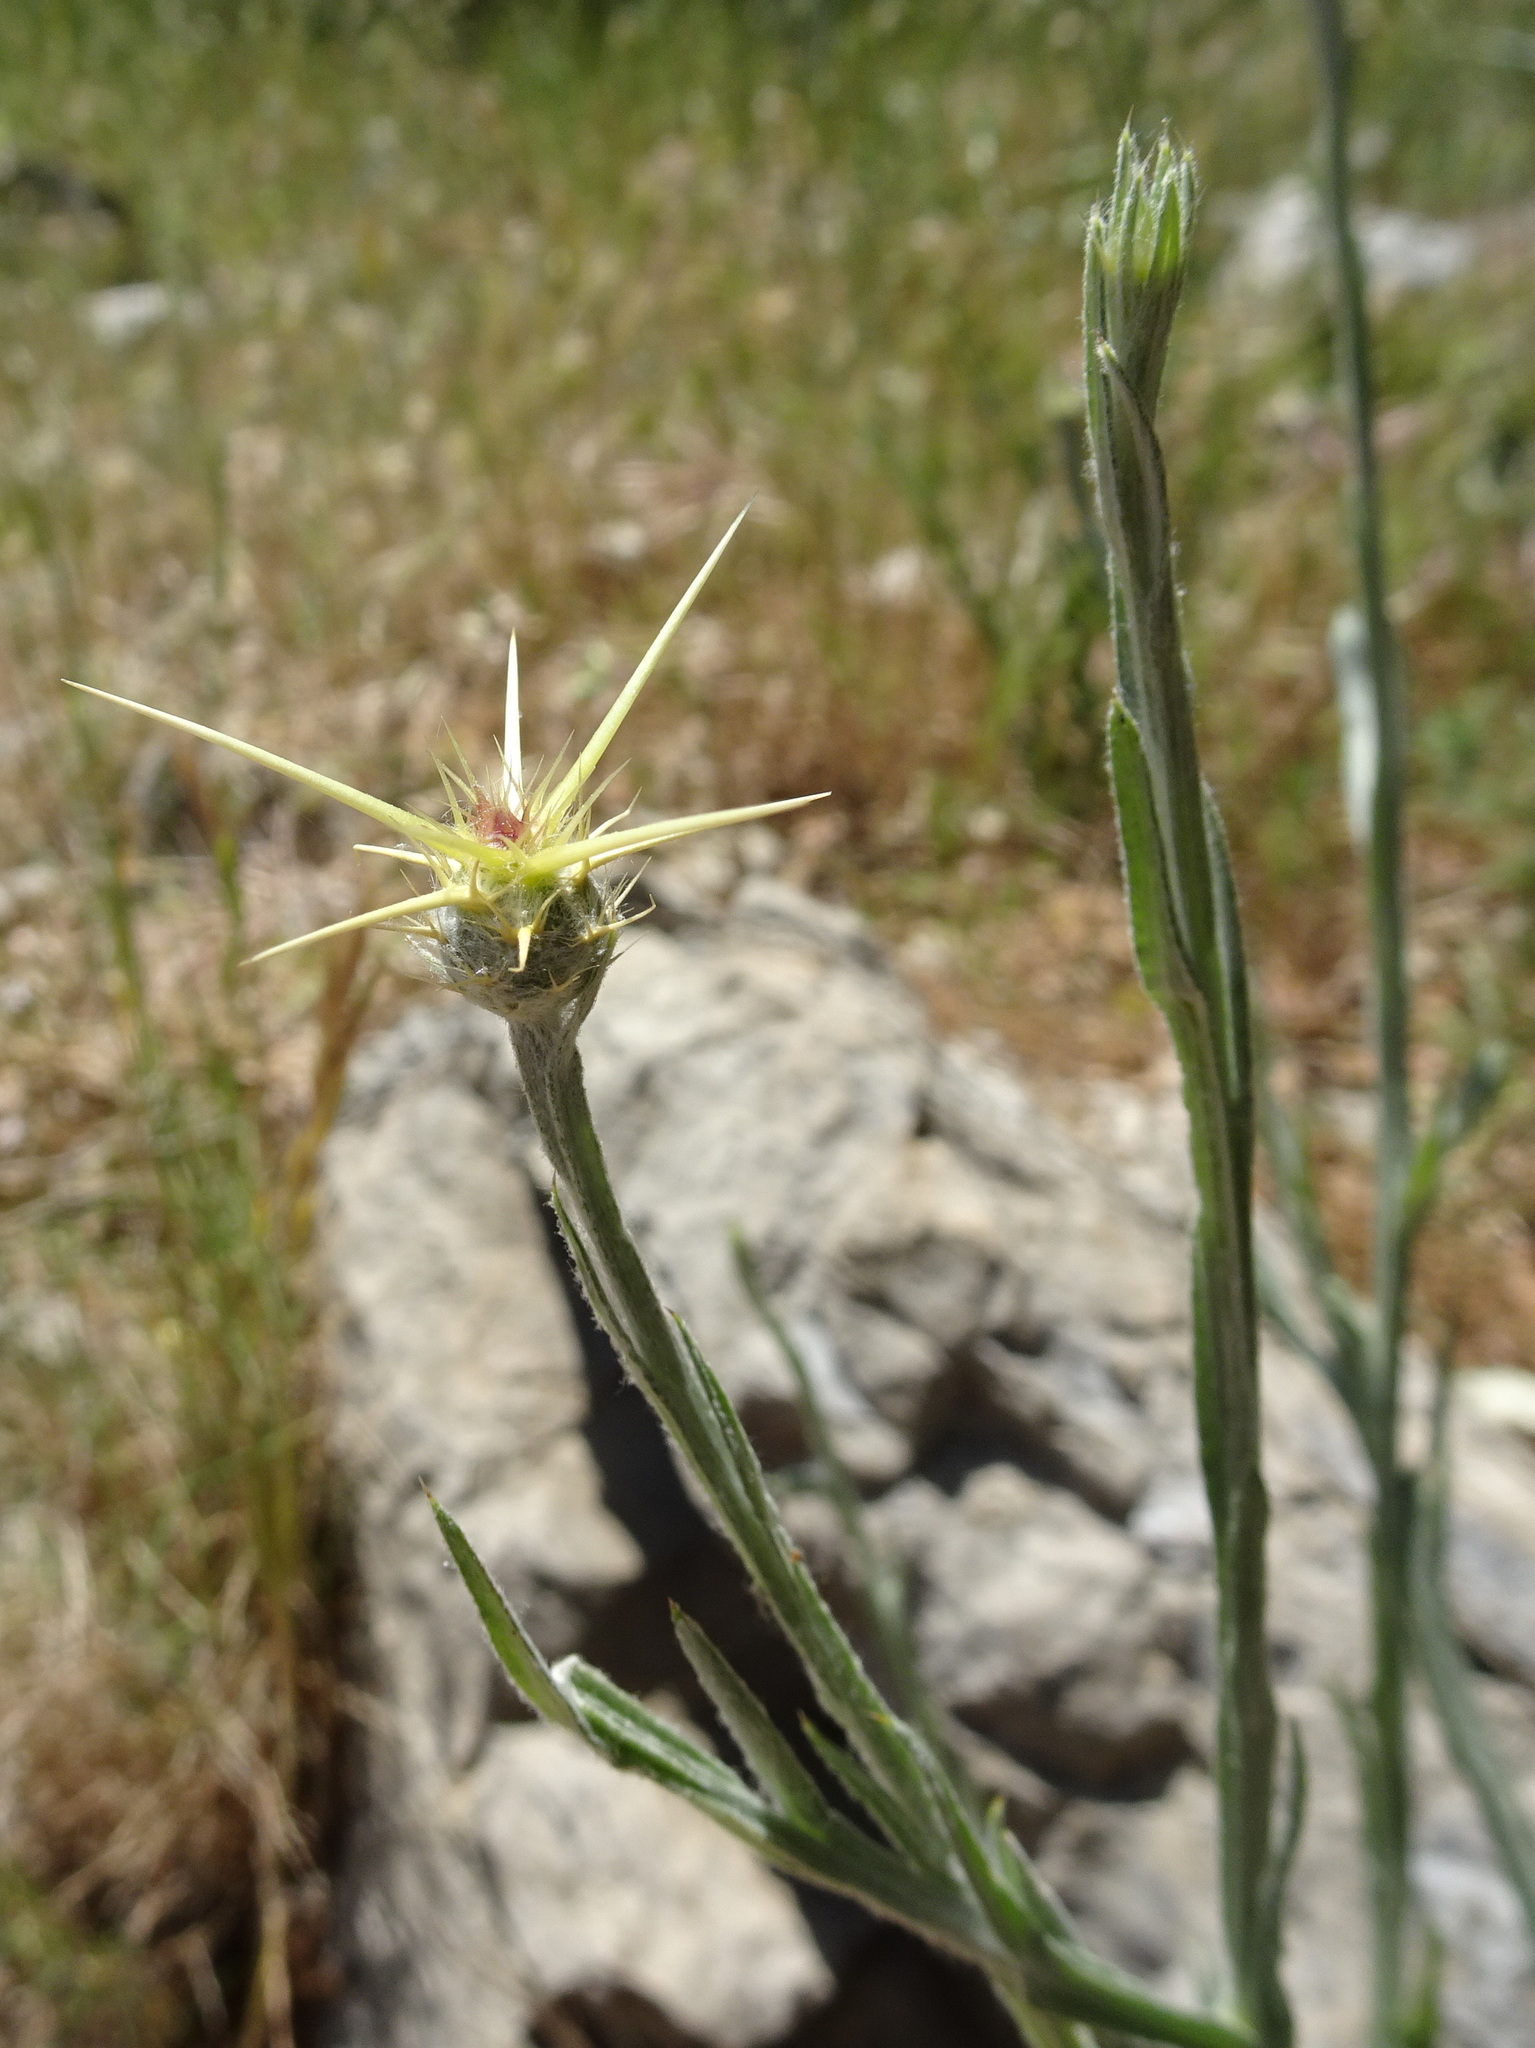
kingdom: Plantae
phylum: Tracheophyta
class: Magnoliopsida
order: Asterales
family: Asteraceae
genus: Centaurea
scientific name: Centaurea solstitialis
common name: Yellow star-thistle
